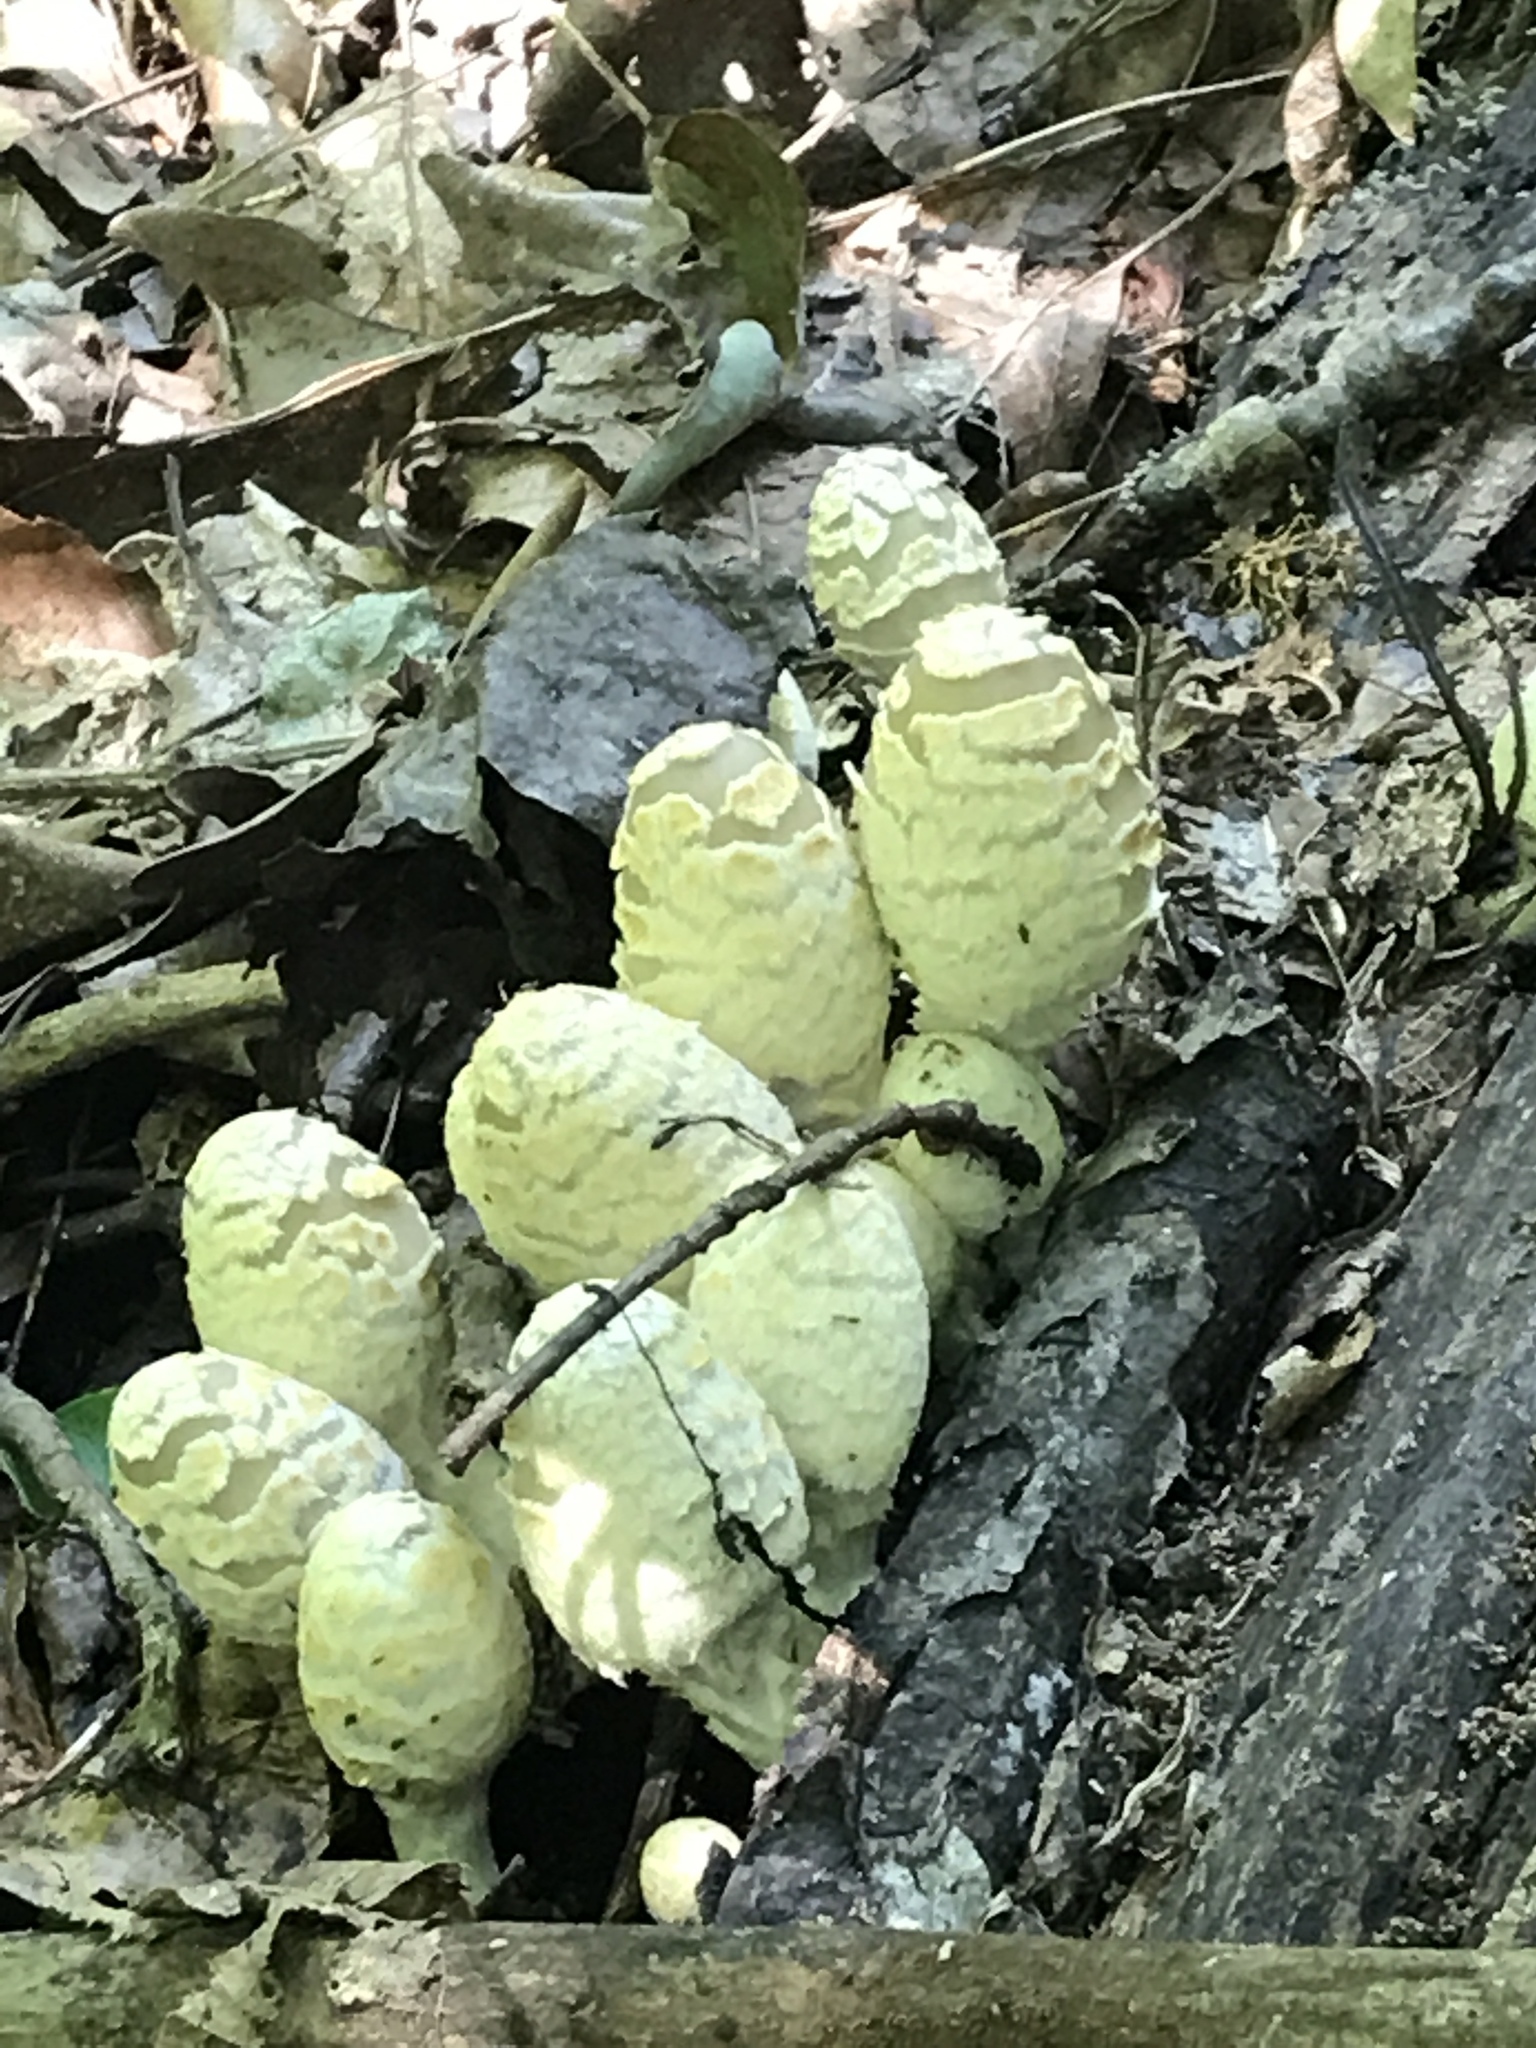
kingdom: Fungi
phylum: Basidiomycota
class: Agaricomycetes
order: Agaricales
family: Psathyrellaceae
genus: Coprinopsis
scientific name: Coprinopsis variegata
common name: Scaly ink cap
